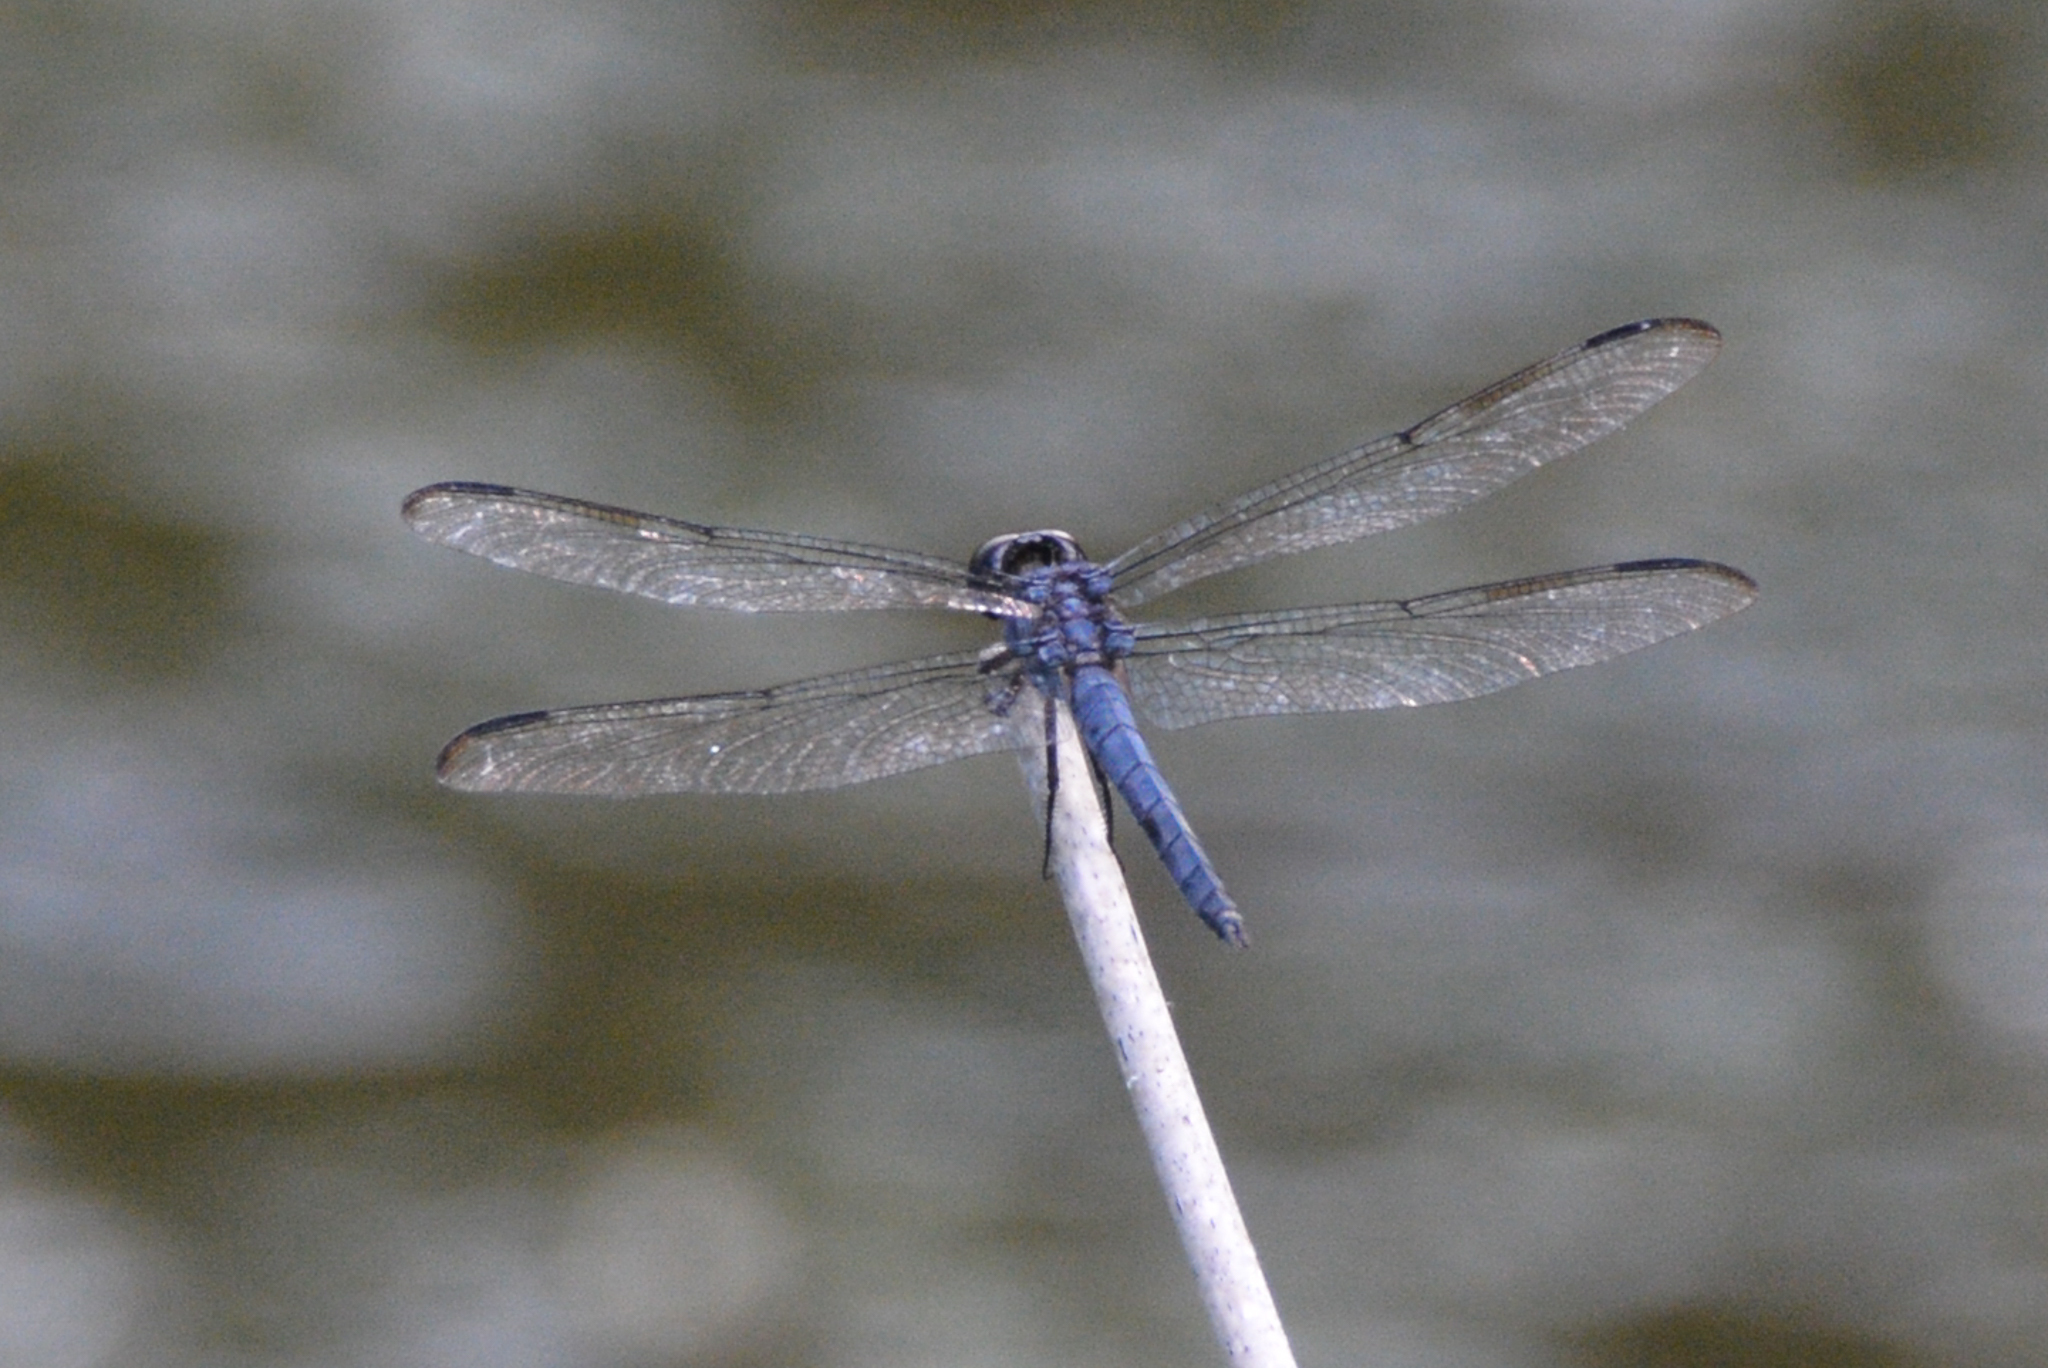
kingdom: Animalia
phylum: Arthropoda
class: Insecta
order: Odonata
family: Libellulidae
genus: Libellula
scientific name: Libellula incesta
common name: Slaty skimmer
